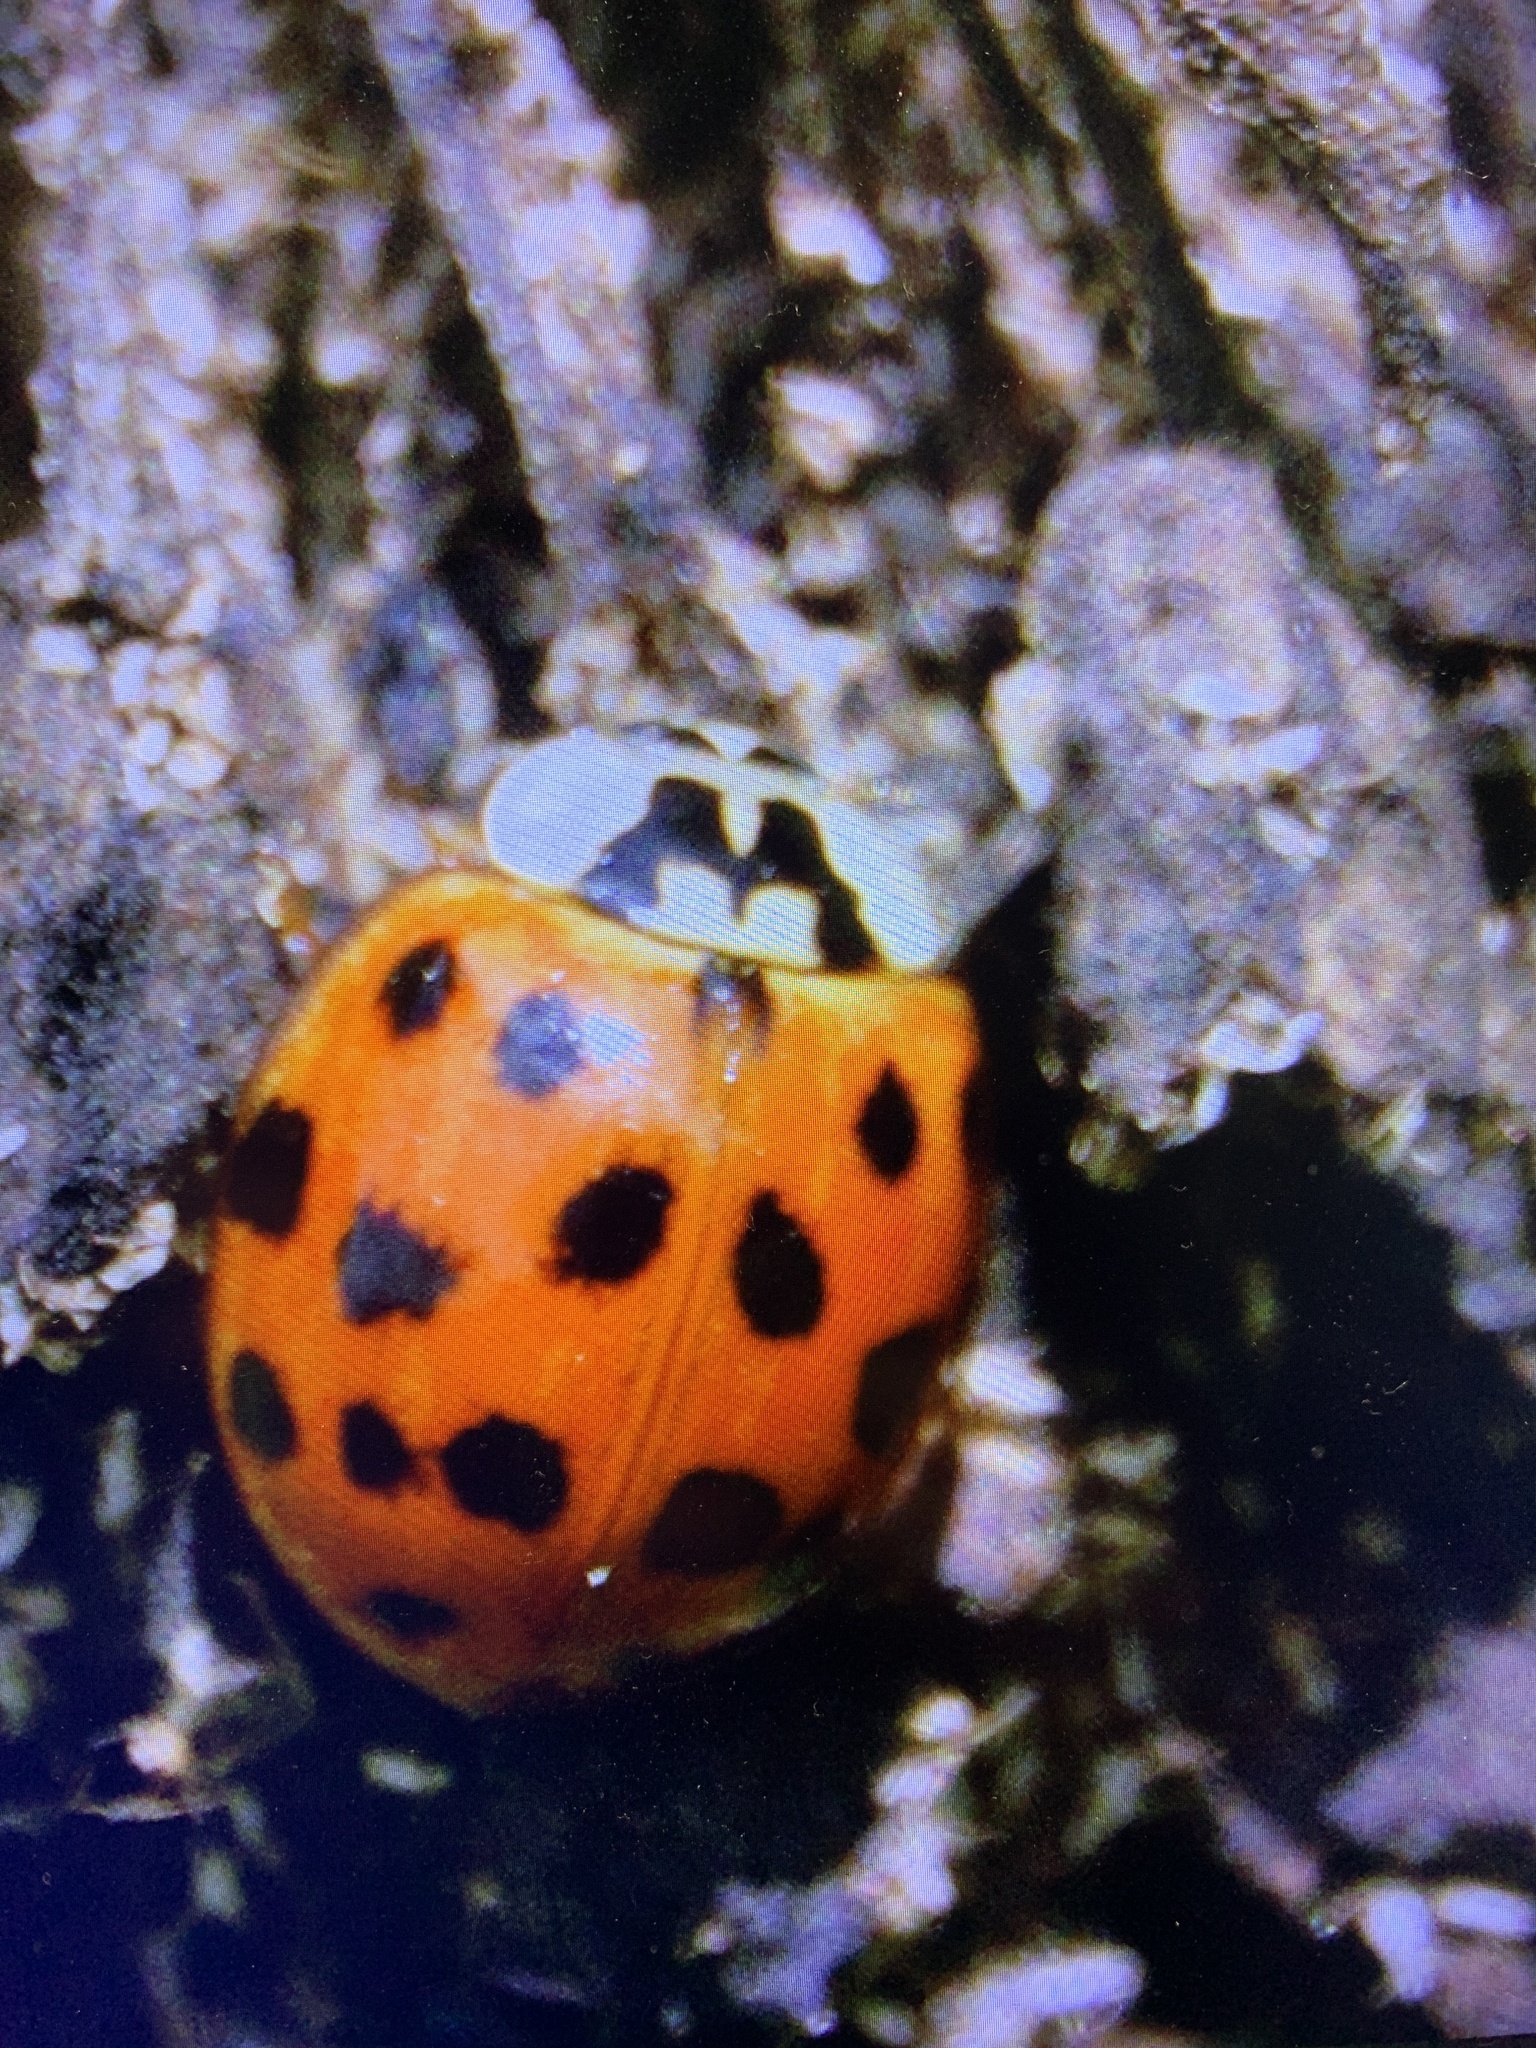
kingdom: Animalia
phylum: Arthropoda
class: Insecta
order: Coleoptera
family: Coccinellidae
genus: Harmonia
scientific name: Harmonia axyridis
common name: Harlequin ladybird
